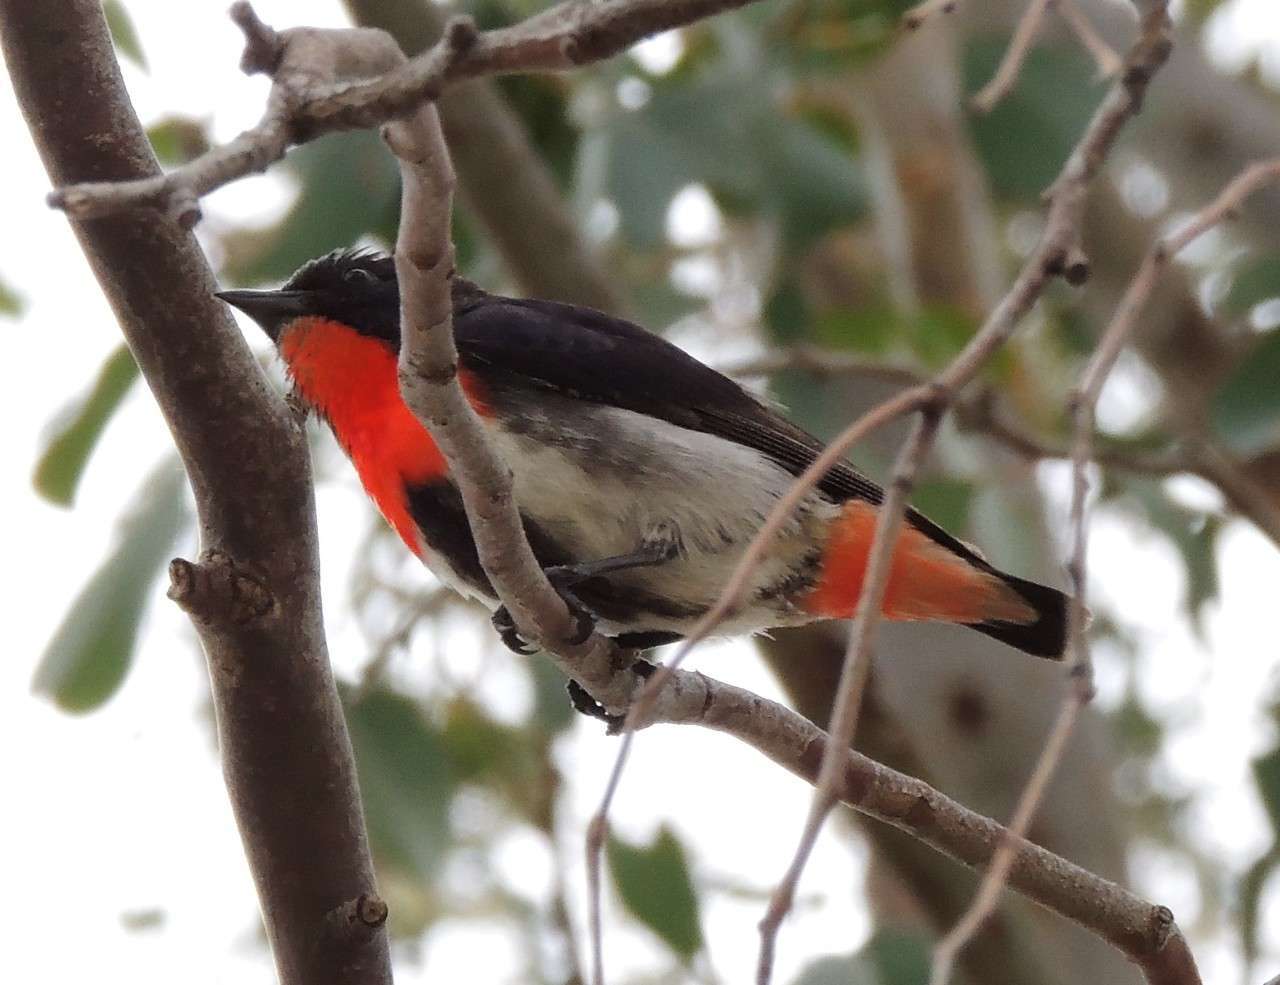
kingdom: Animalia
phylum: Chordata
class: Aves
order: Passeriformes
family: Dicaeidae
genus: Dicaeum
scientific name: Dicaeum hirundinaceum
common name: Mistletoebird
